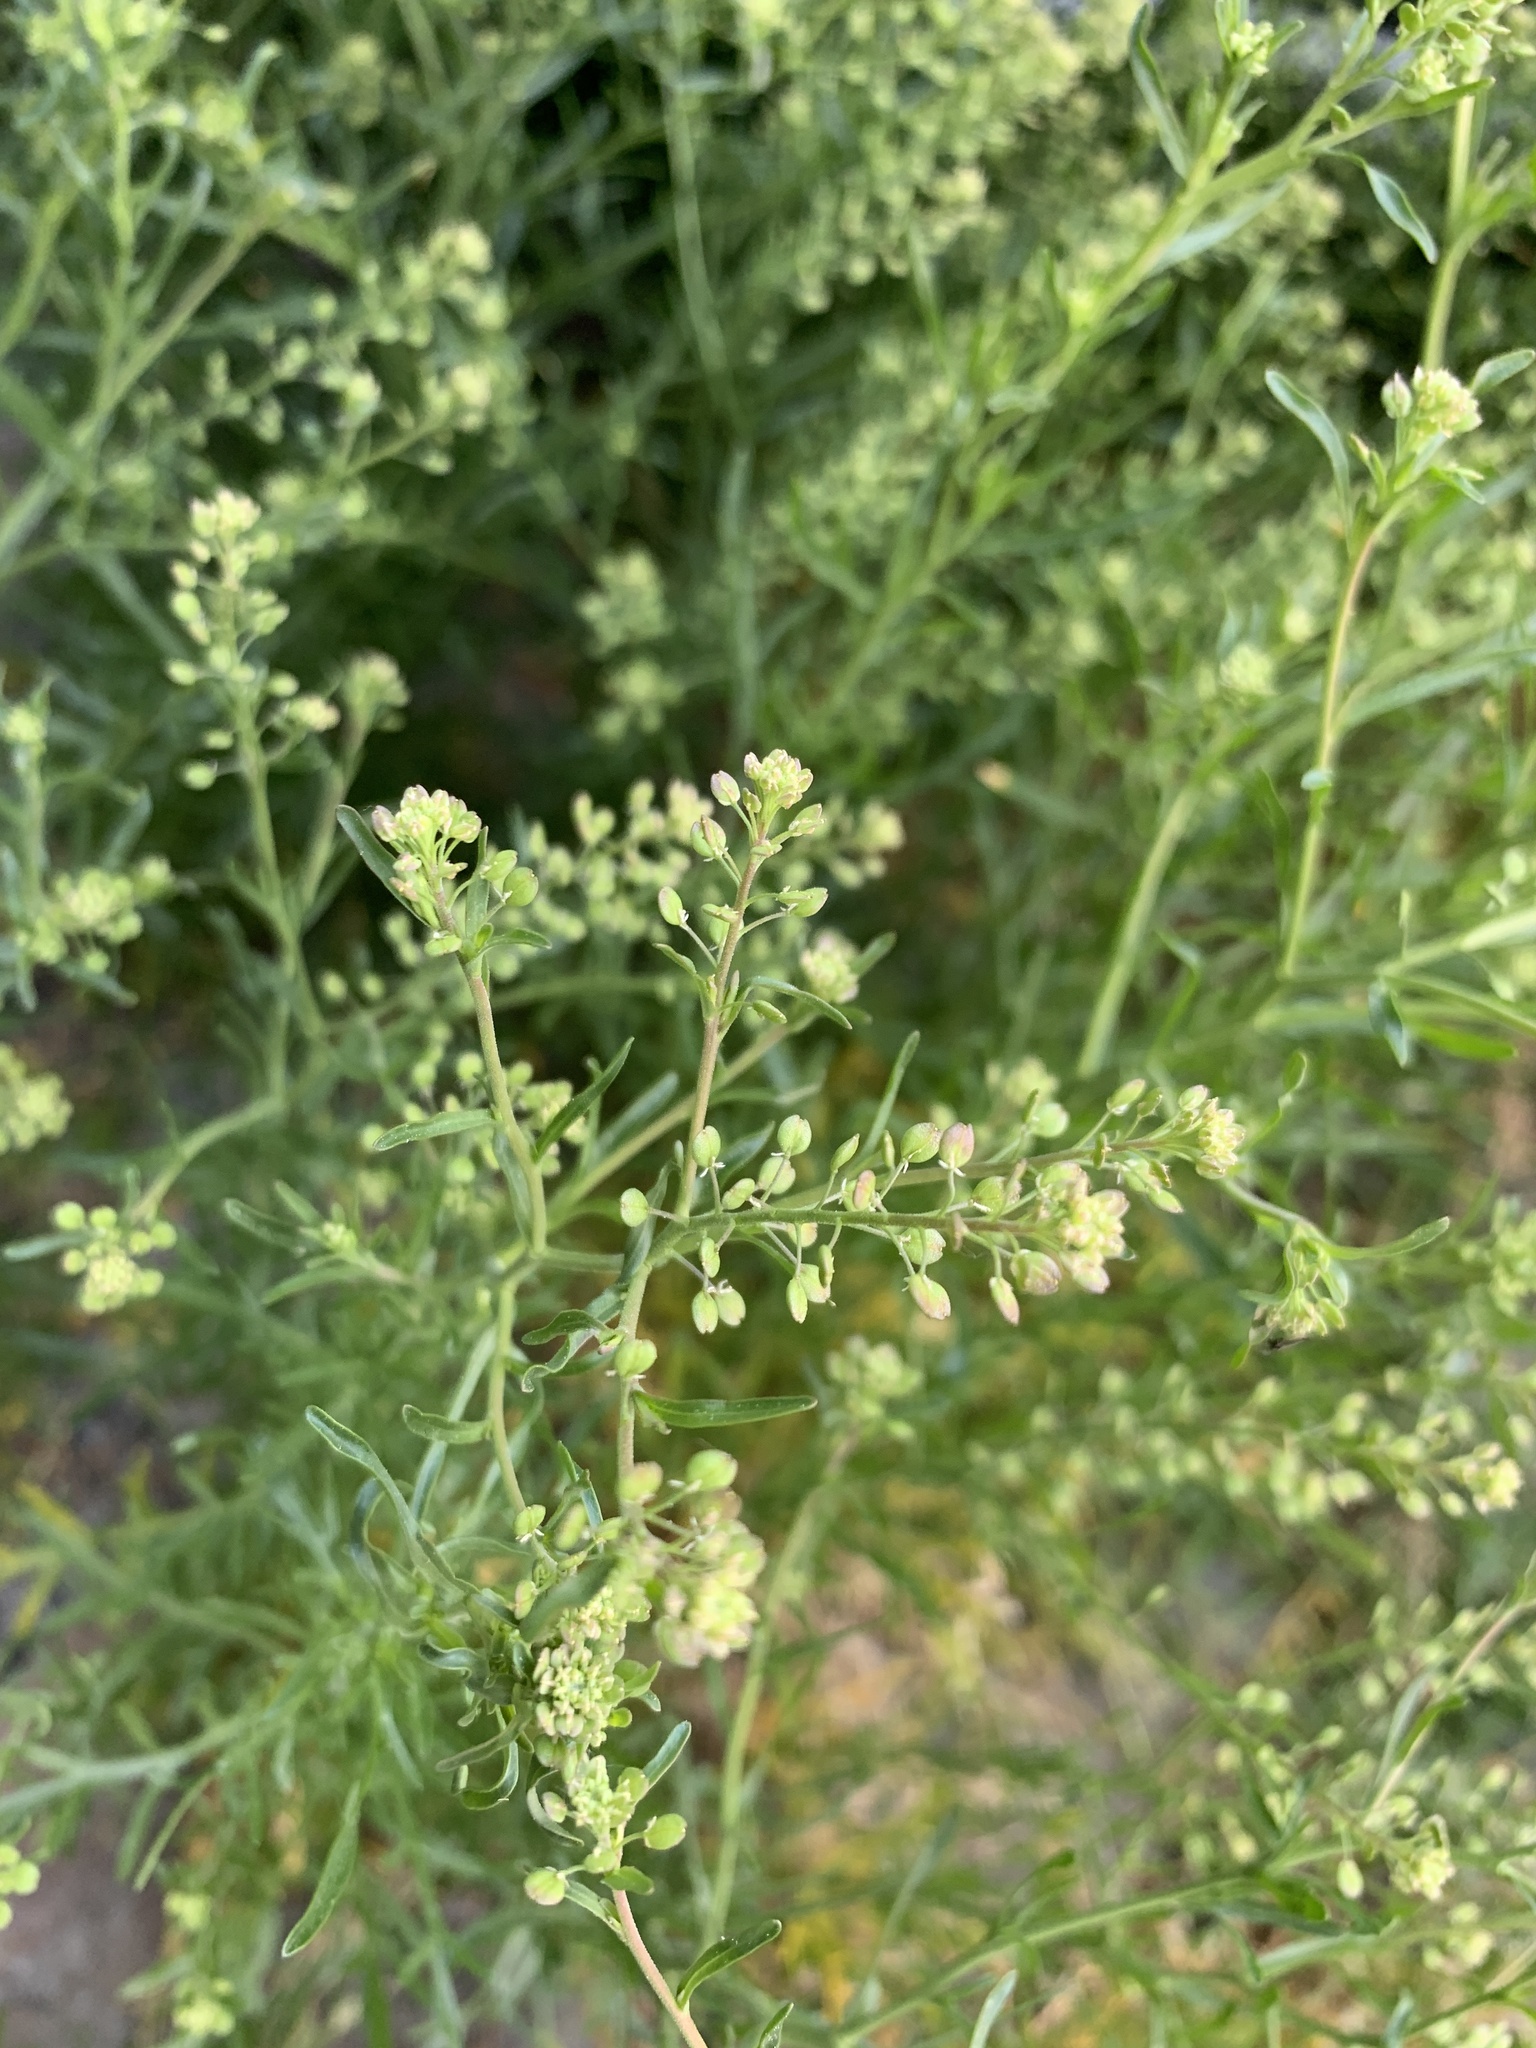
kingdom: Plantae
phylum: Tracheophyta
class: Magnoliopsida
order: Brassicales
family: Brassicaceae
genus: Lepidium
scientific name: Lepidium ruderale
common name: Narrow-leaved pepperwort
